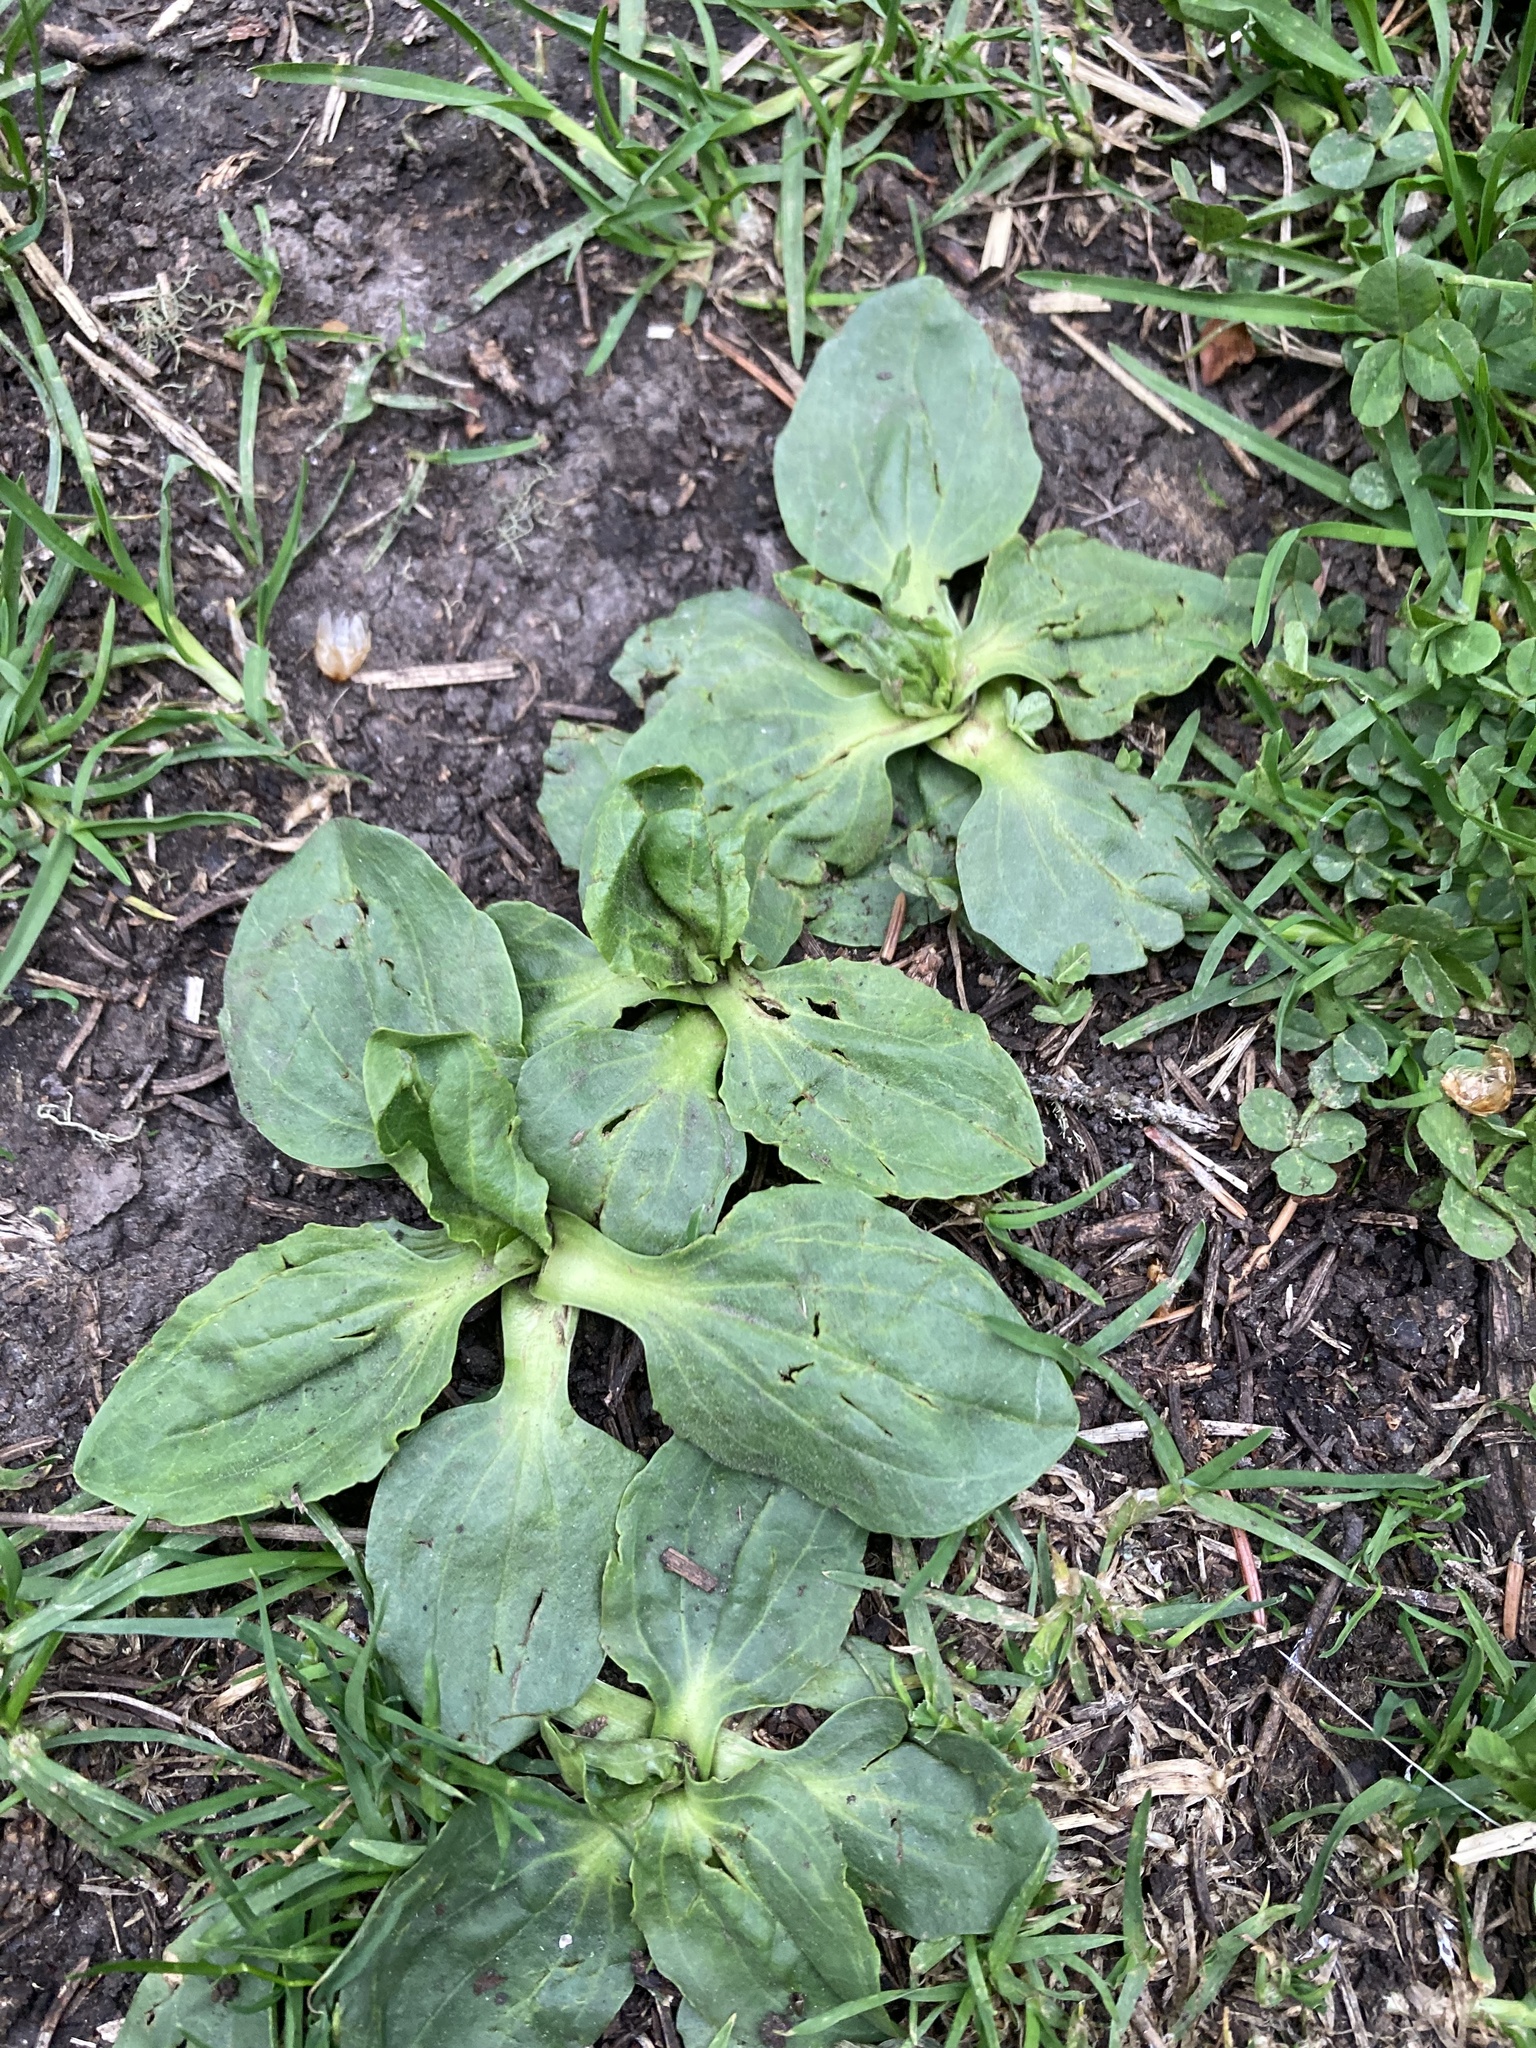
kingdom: Plantae
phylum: Tracheophyta
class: Magnoliopsida
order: Lamiales
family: Plantaginaceae
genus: Plantago
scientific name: Plantago major
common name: Common plantain
